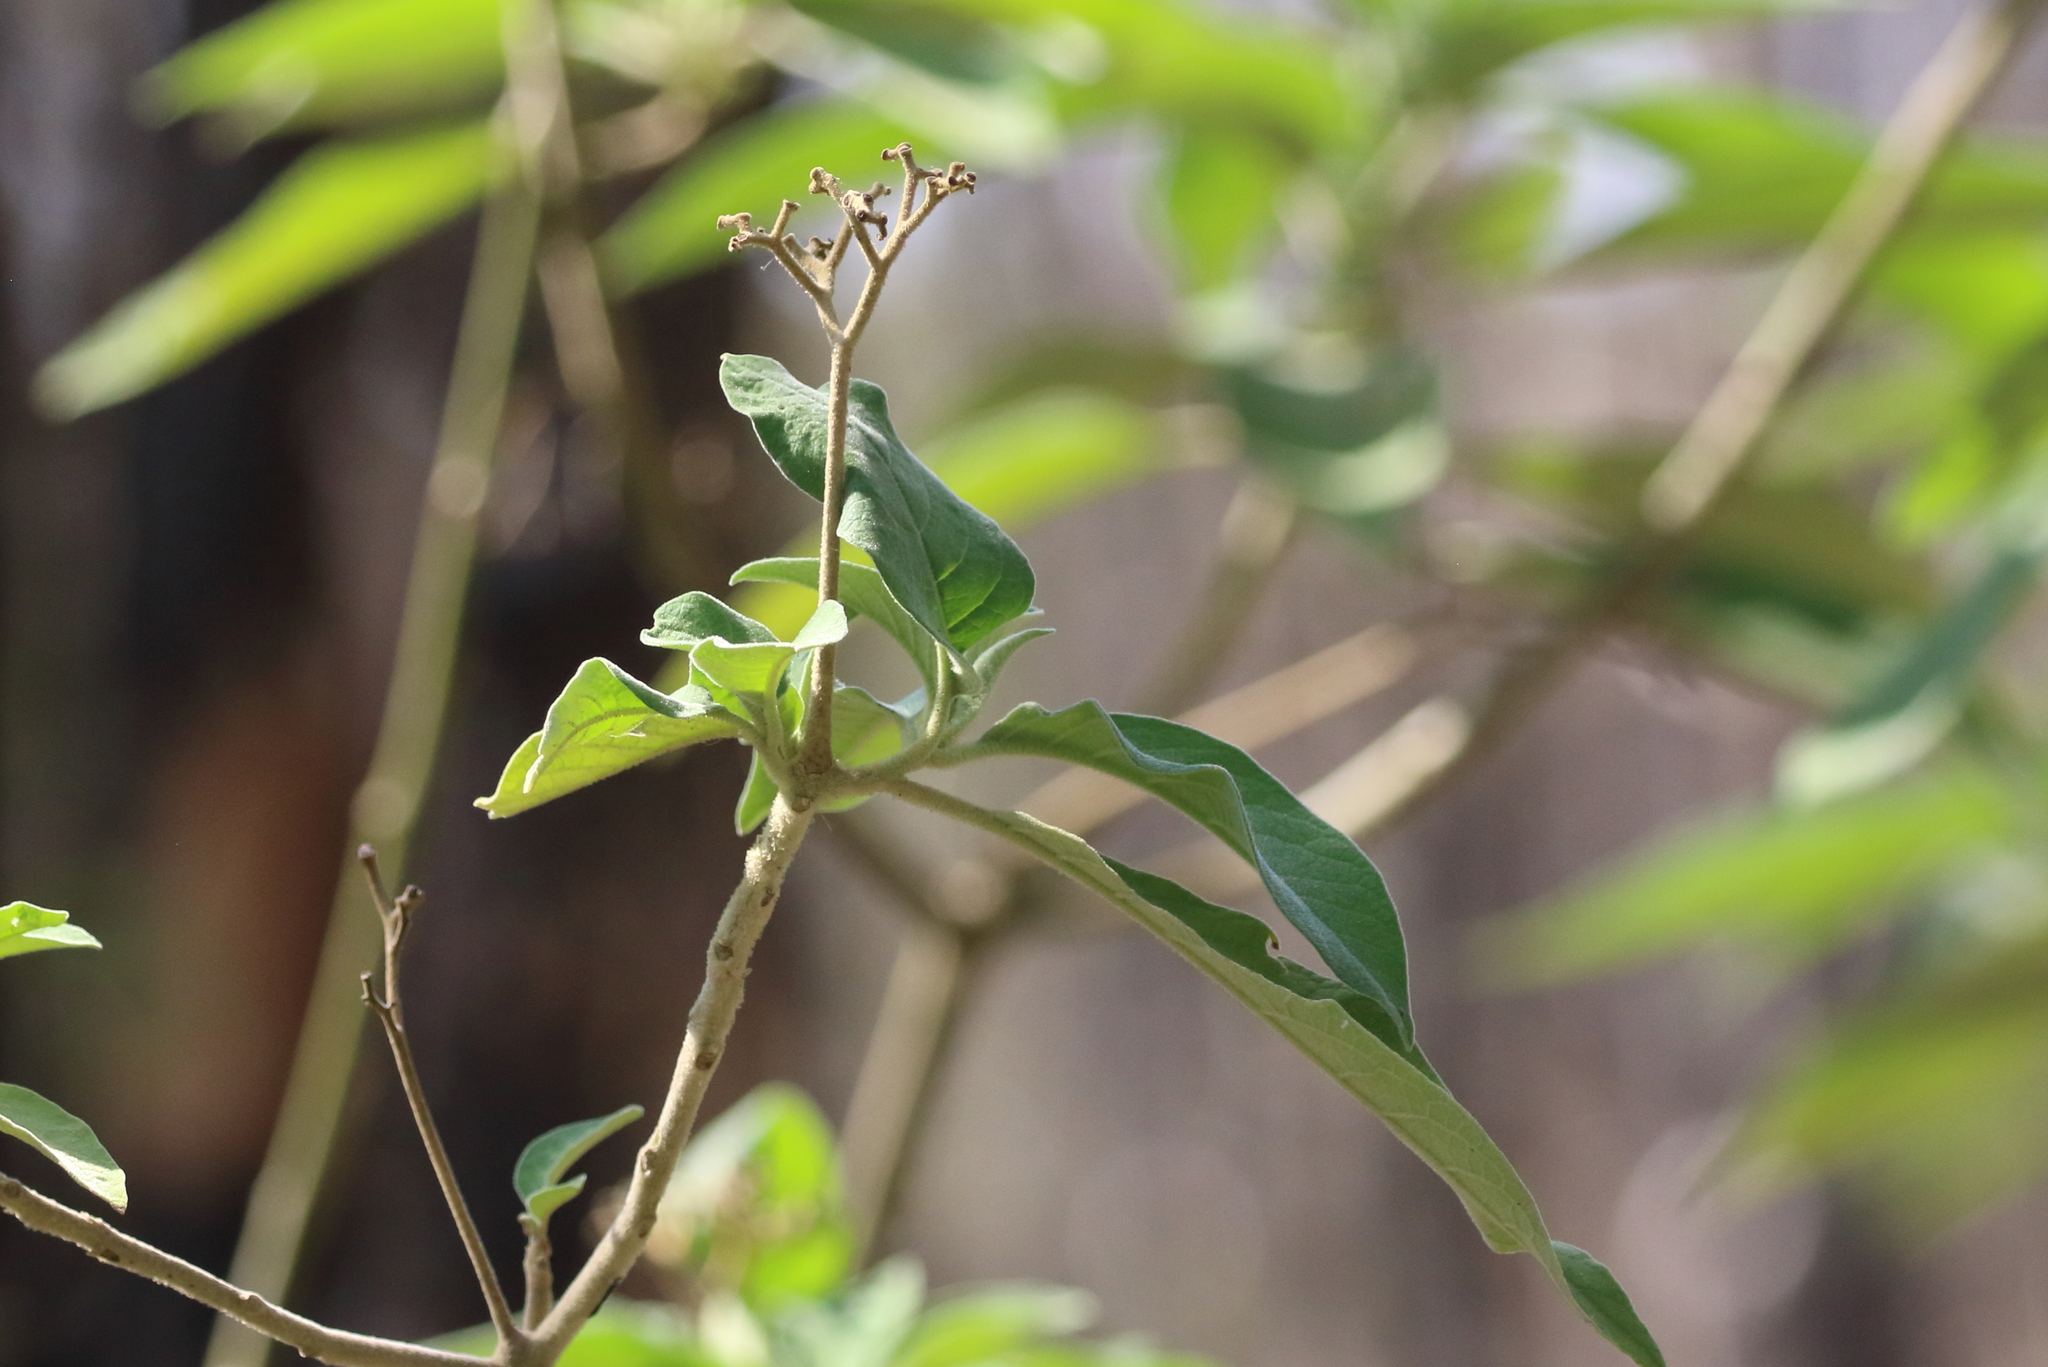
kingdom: Plantae
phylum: Tracheophyta
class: Magnoliopsida
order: Solanales
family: Solanaceae
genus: Solanum
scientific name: Solanum mauritianum
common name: Earleaf nightshade
